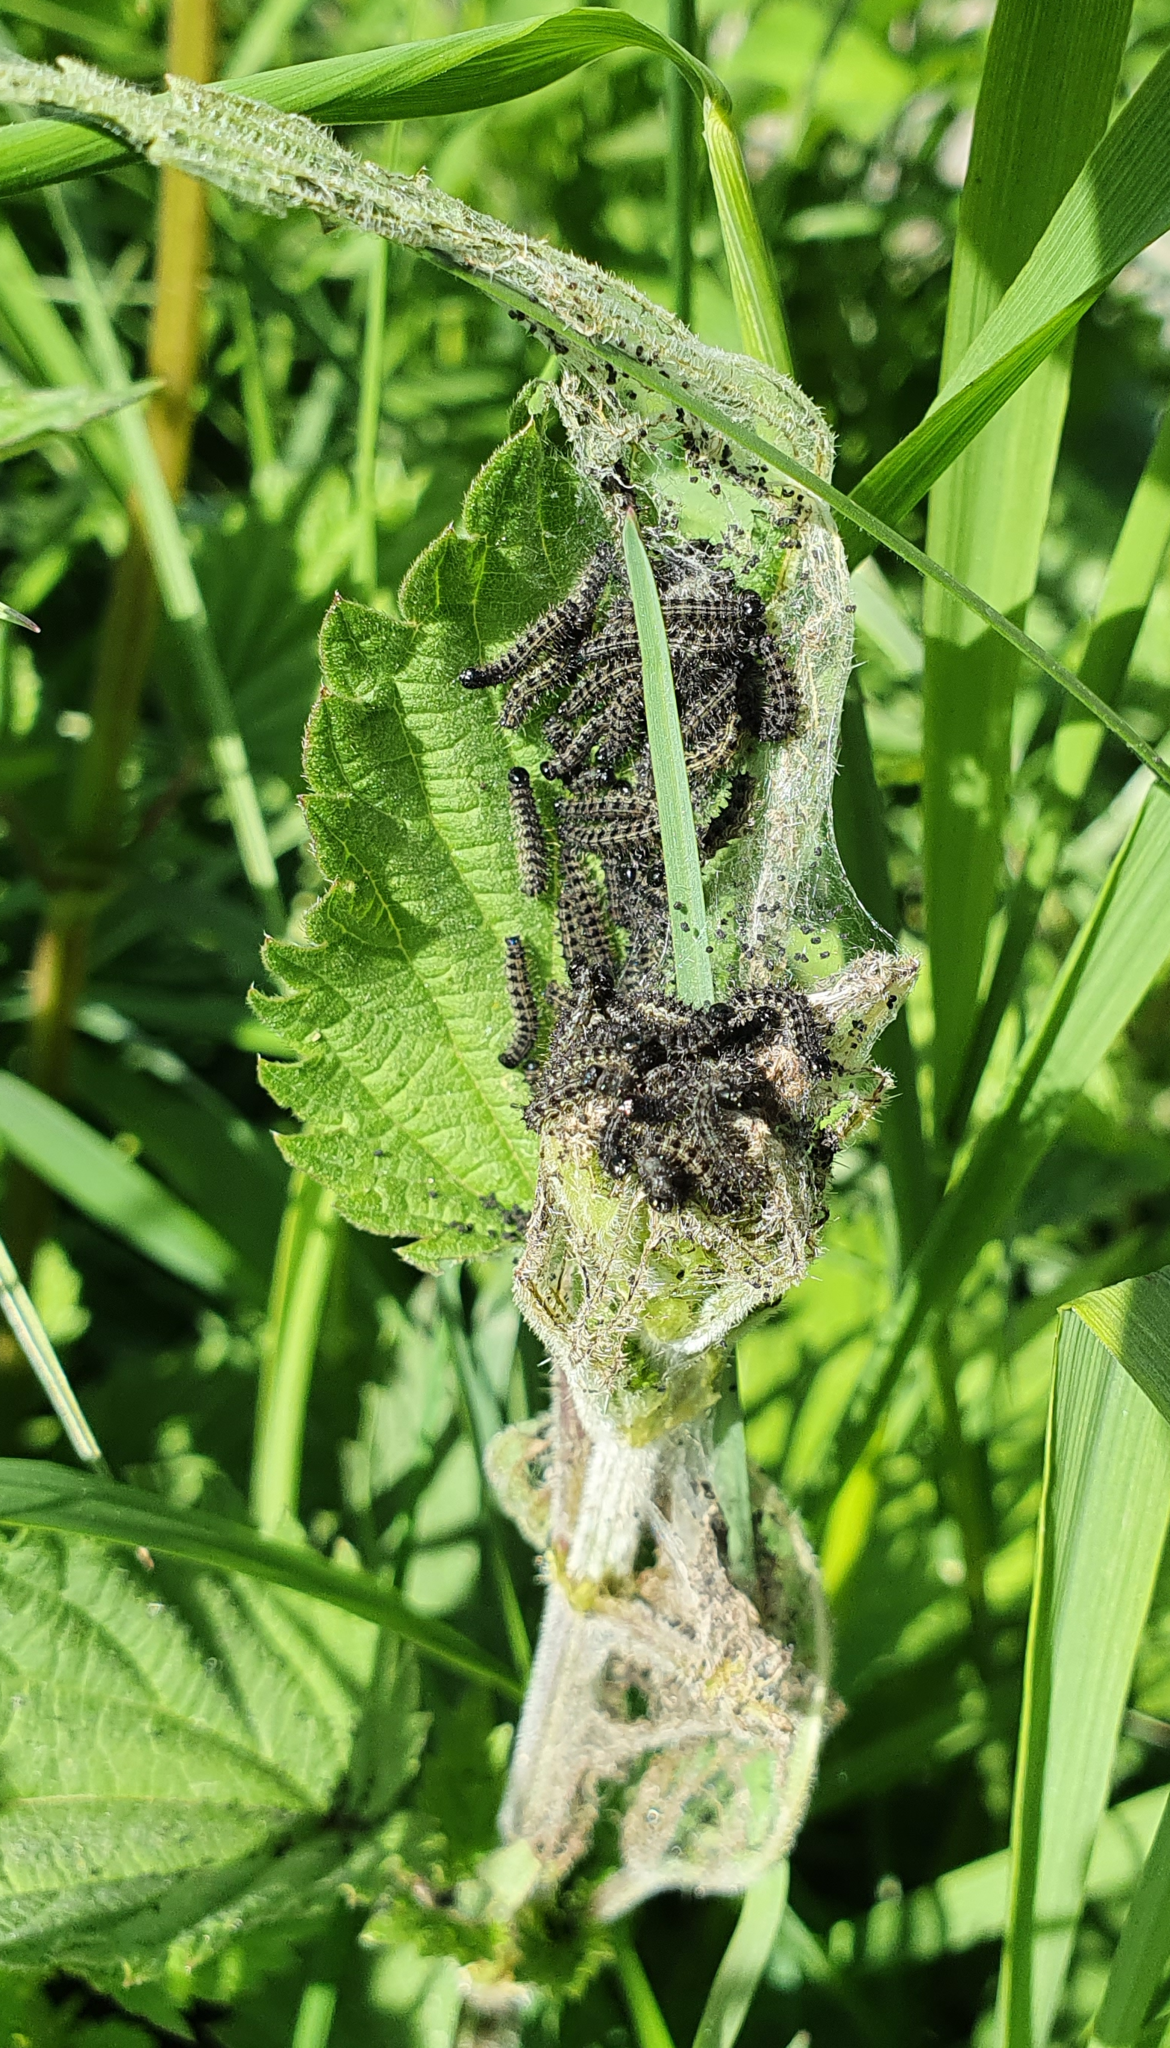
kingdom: Animalia
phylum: Arthropoda
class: Insecta
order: Lepidoptera
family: Nymphalidae
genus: Aglais
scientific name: Aglais urticae
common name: Small tortoiseshell
